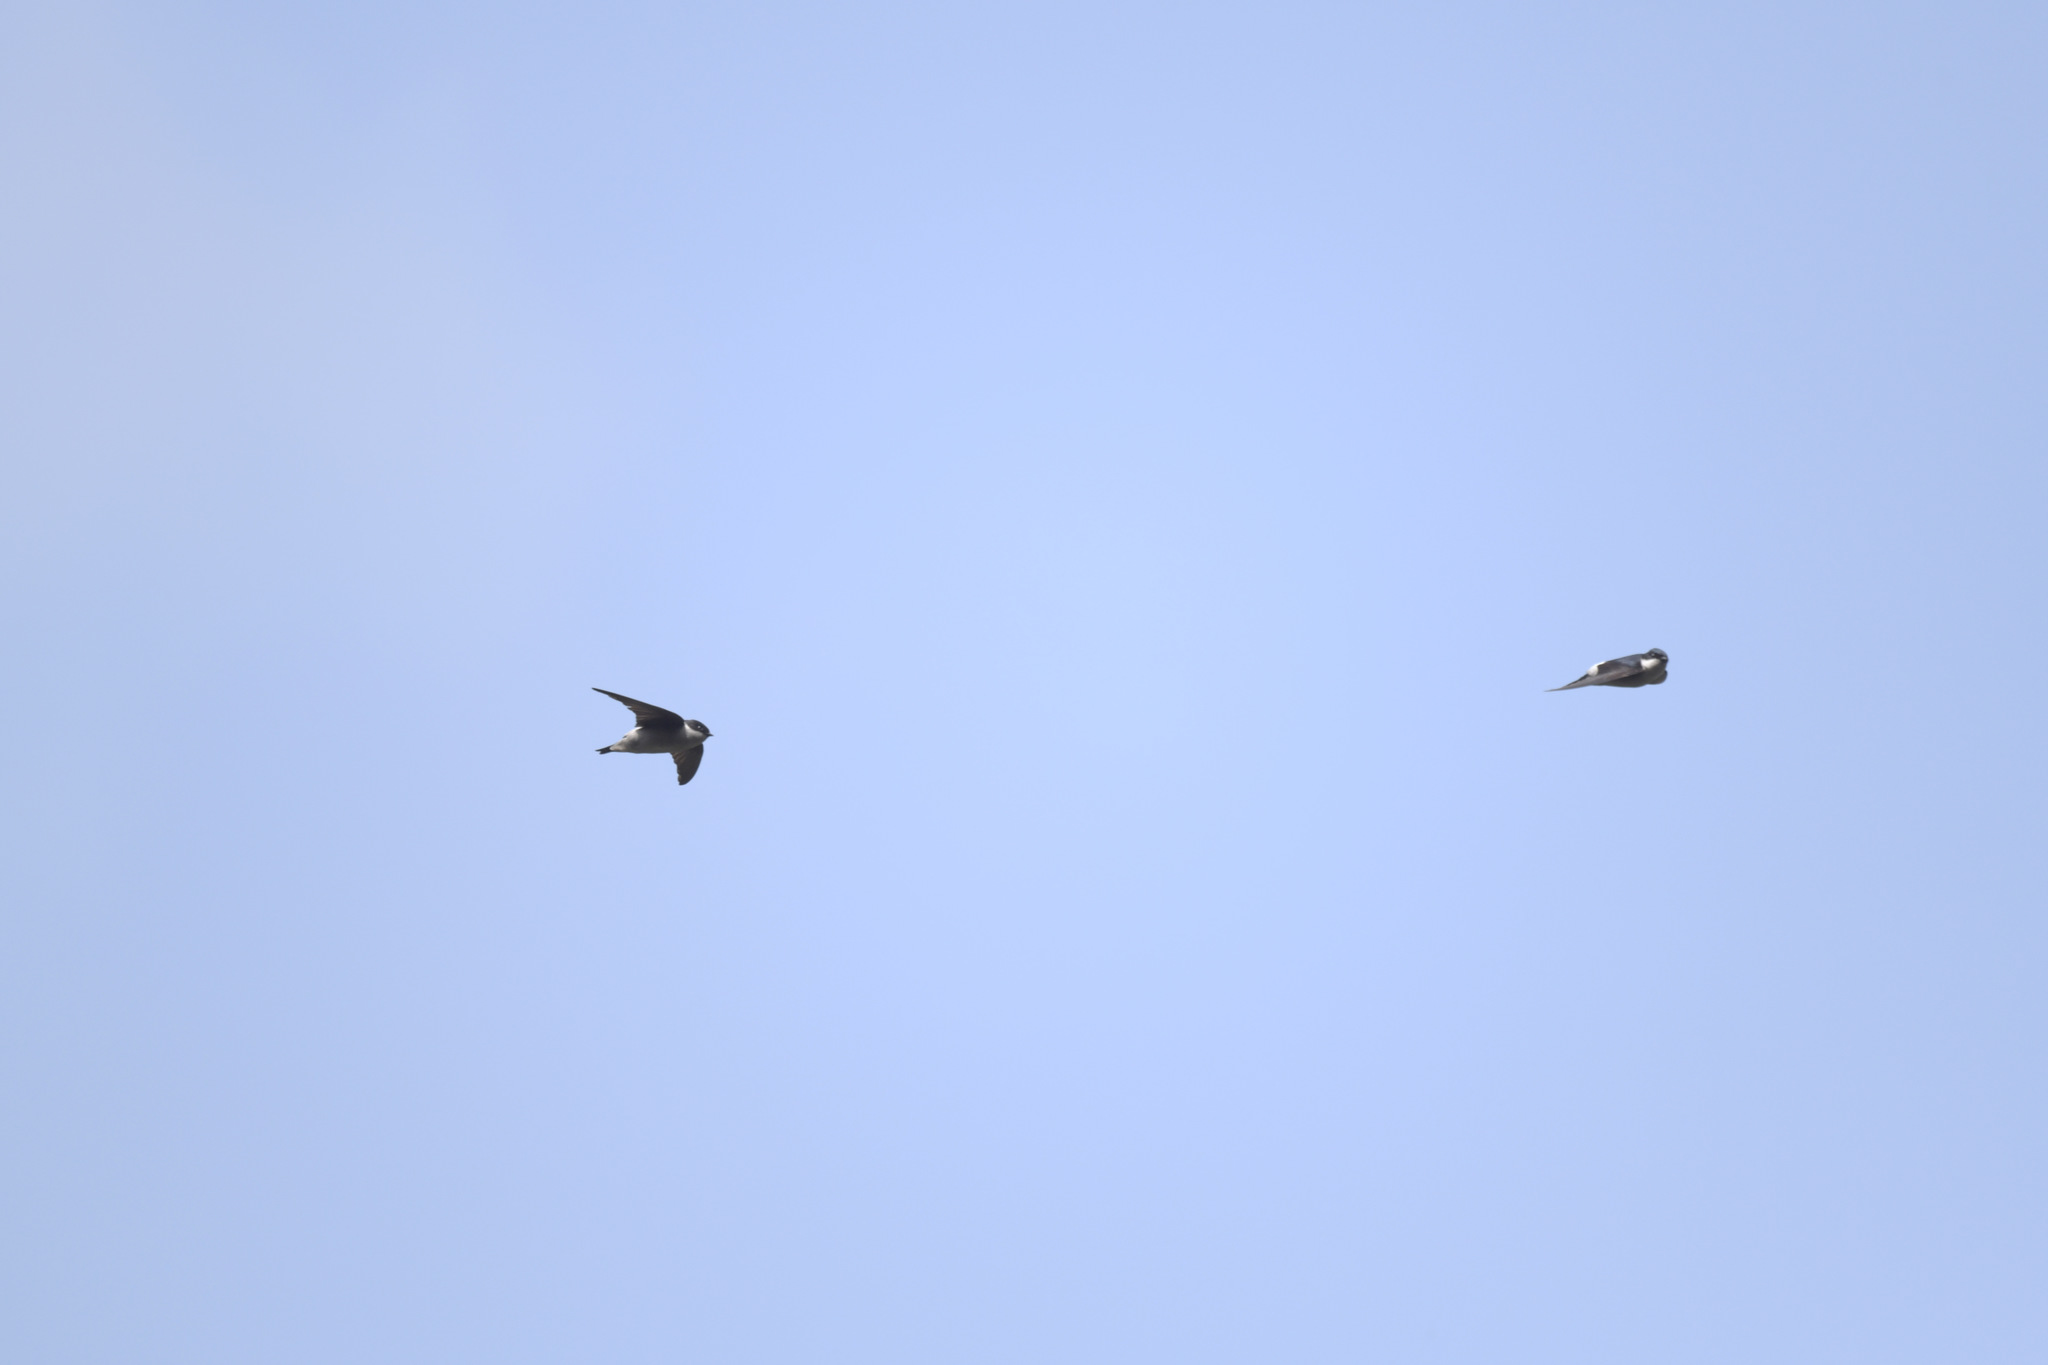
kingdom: Animalia
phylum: Chordata
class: Aves
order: Passeriformes
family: Hirundinidae
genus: Delichon
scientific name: Delichon dasypus
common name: Asian house martin
